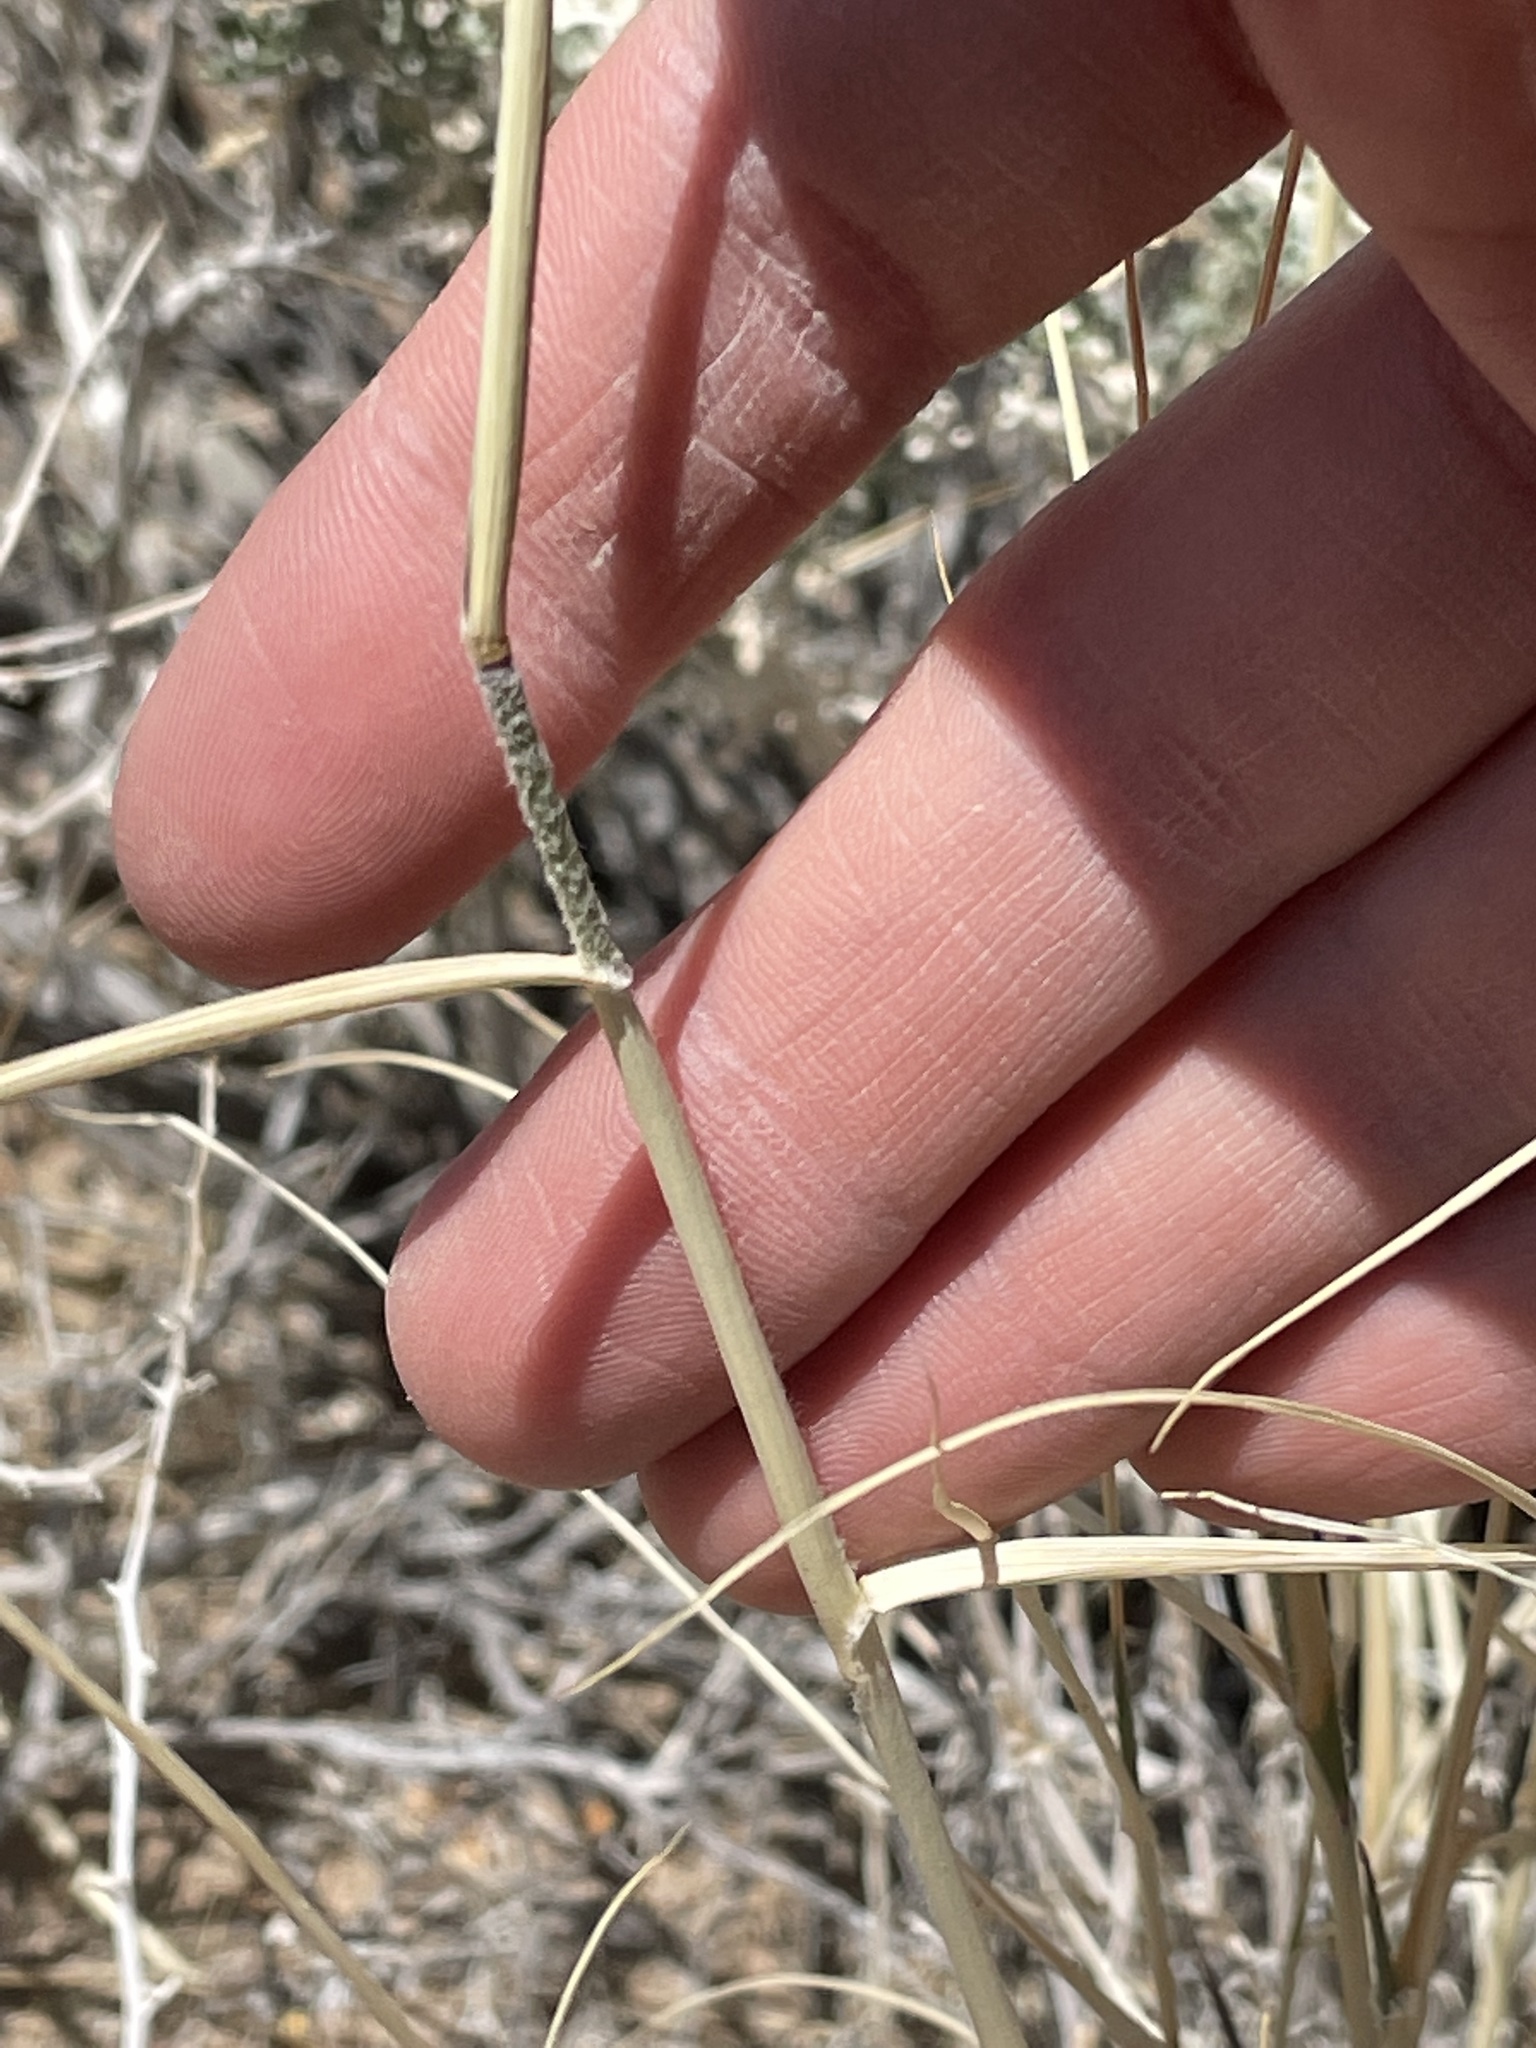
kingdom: Plantae
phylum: Tracheophyta
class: Liliopsida
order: Poales
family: Poaceae
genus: Hilaria
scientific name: Hilaria rigida
